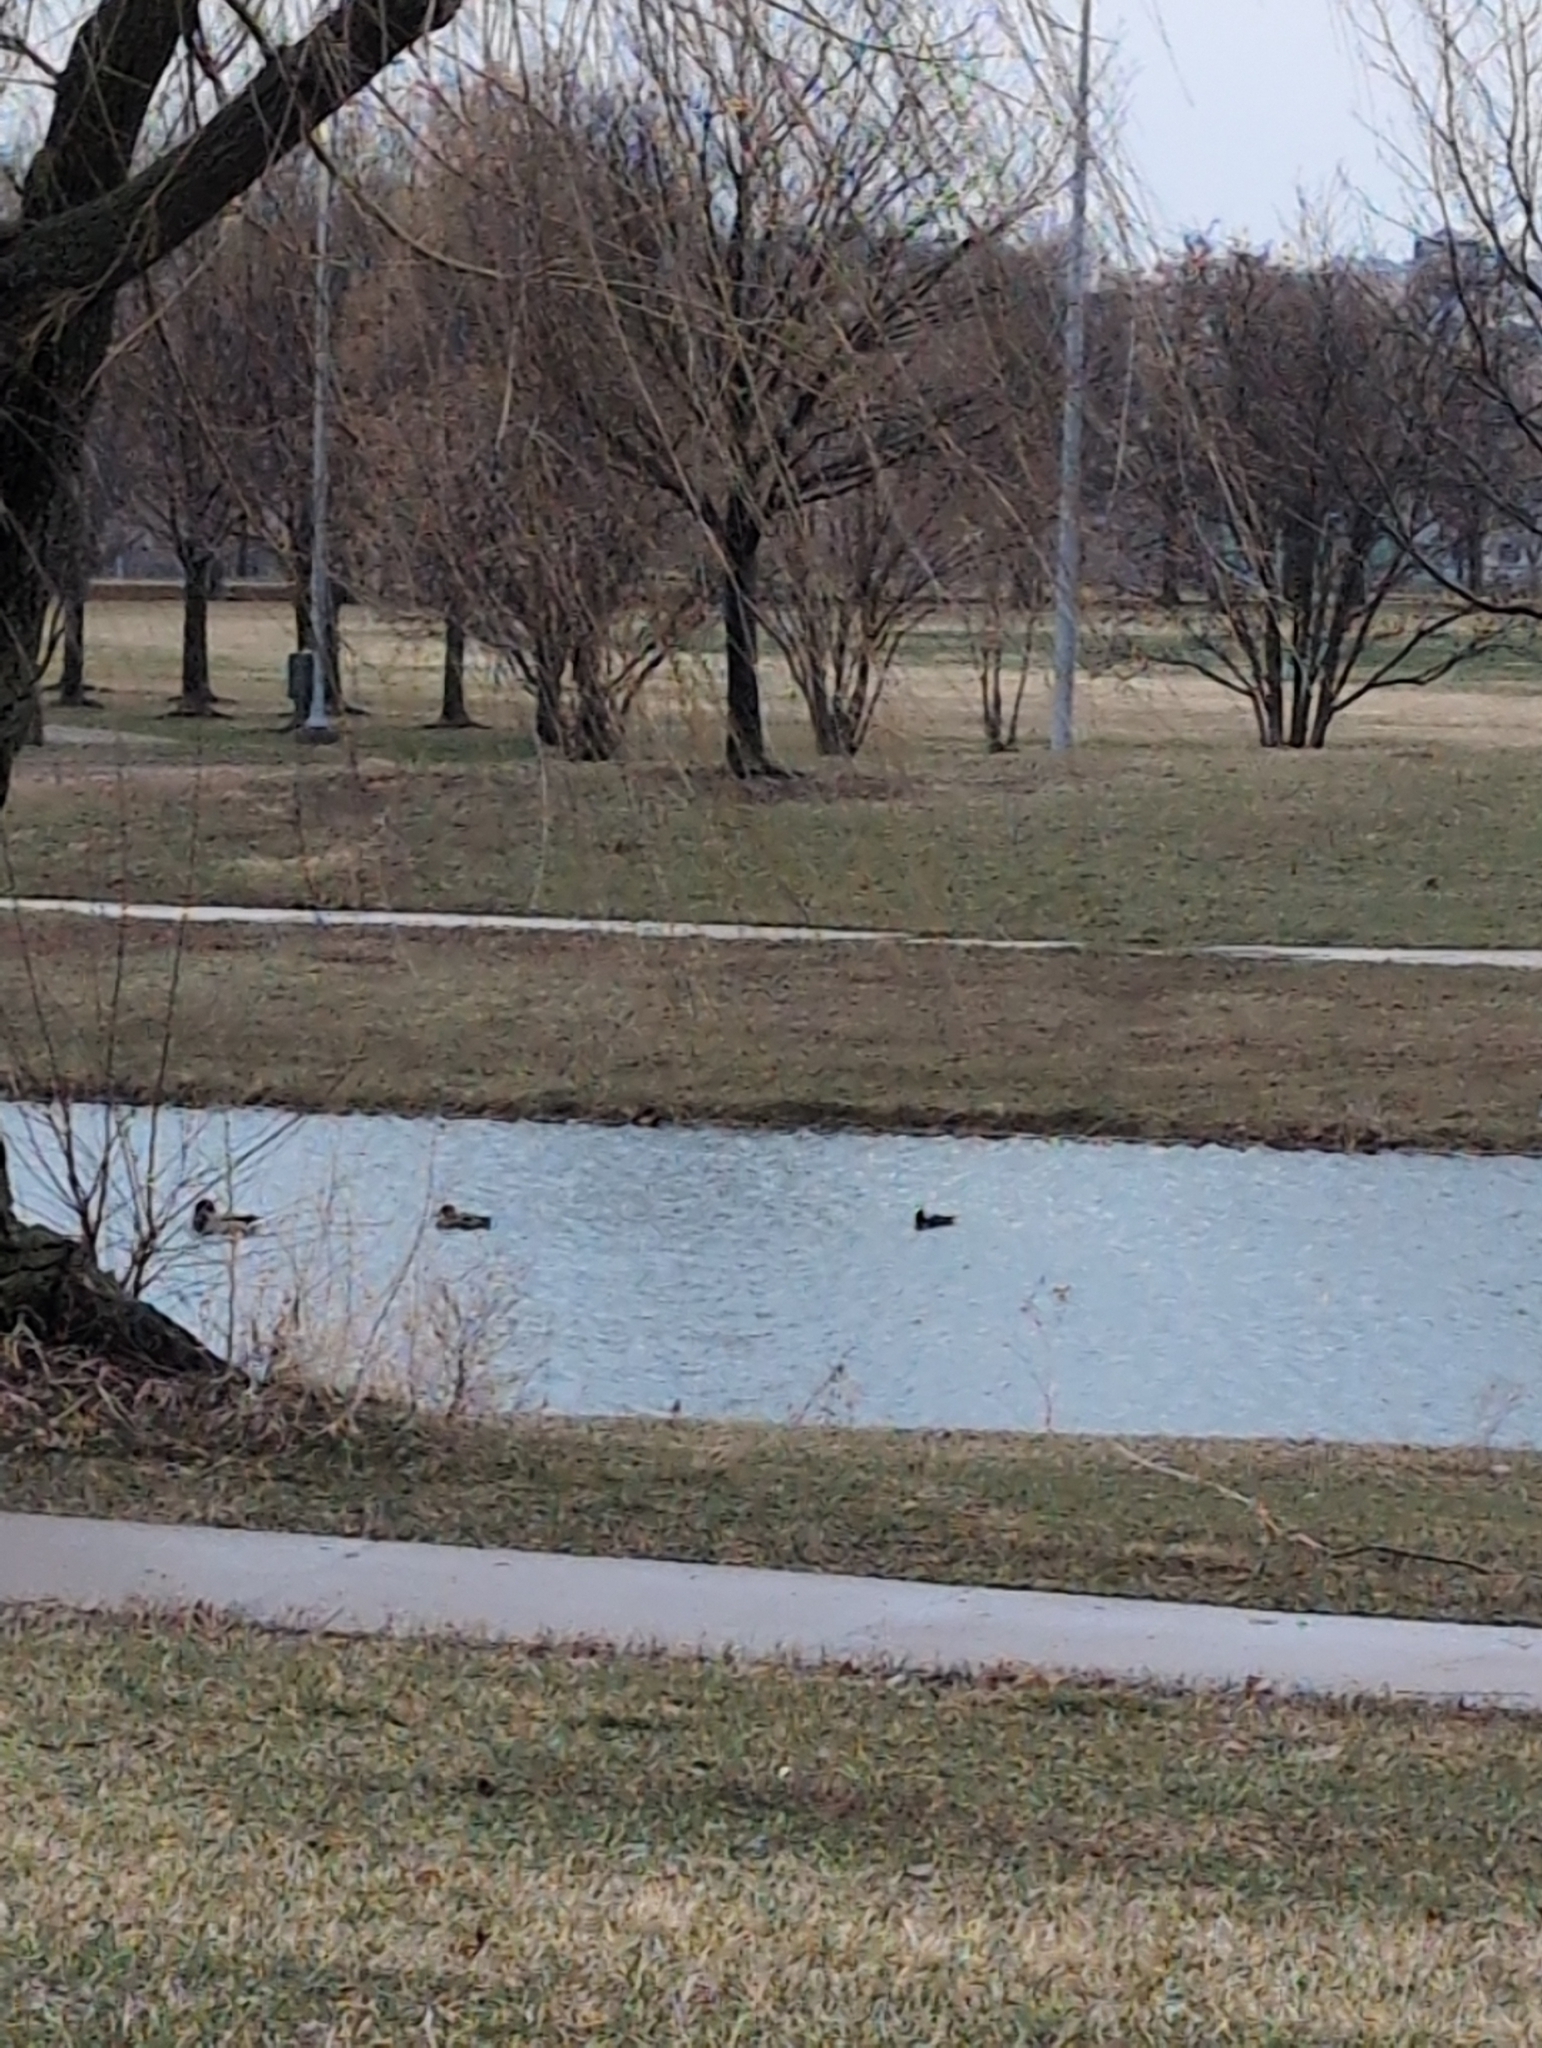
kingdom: Animalia
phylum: Chordata
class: Aves
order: Anseriformes
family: Anatidae
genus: Anas
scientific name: Anas platyrhynchos
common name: Mallard
